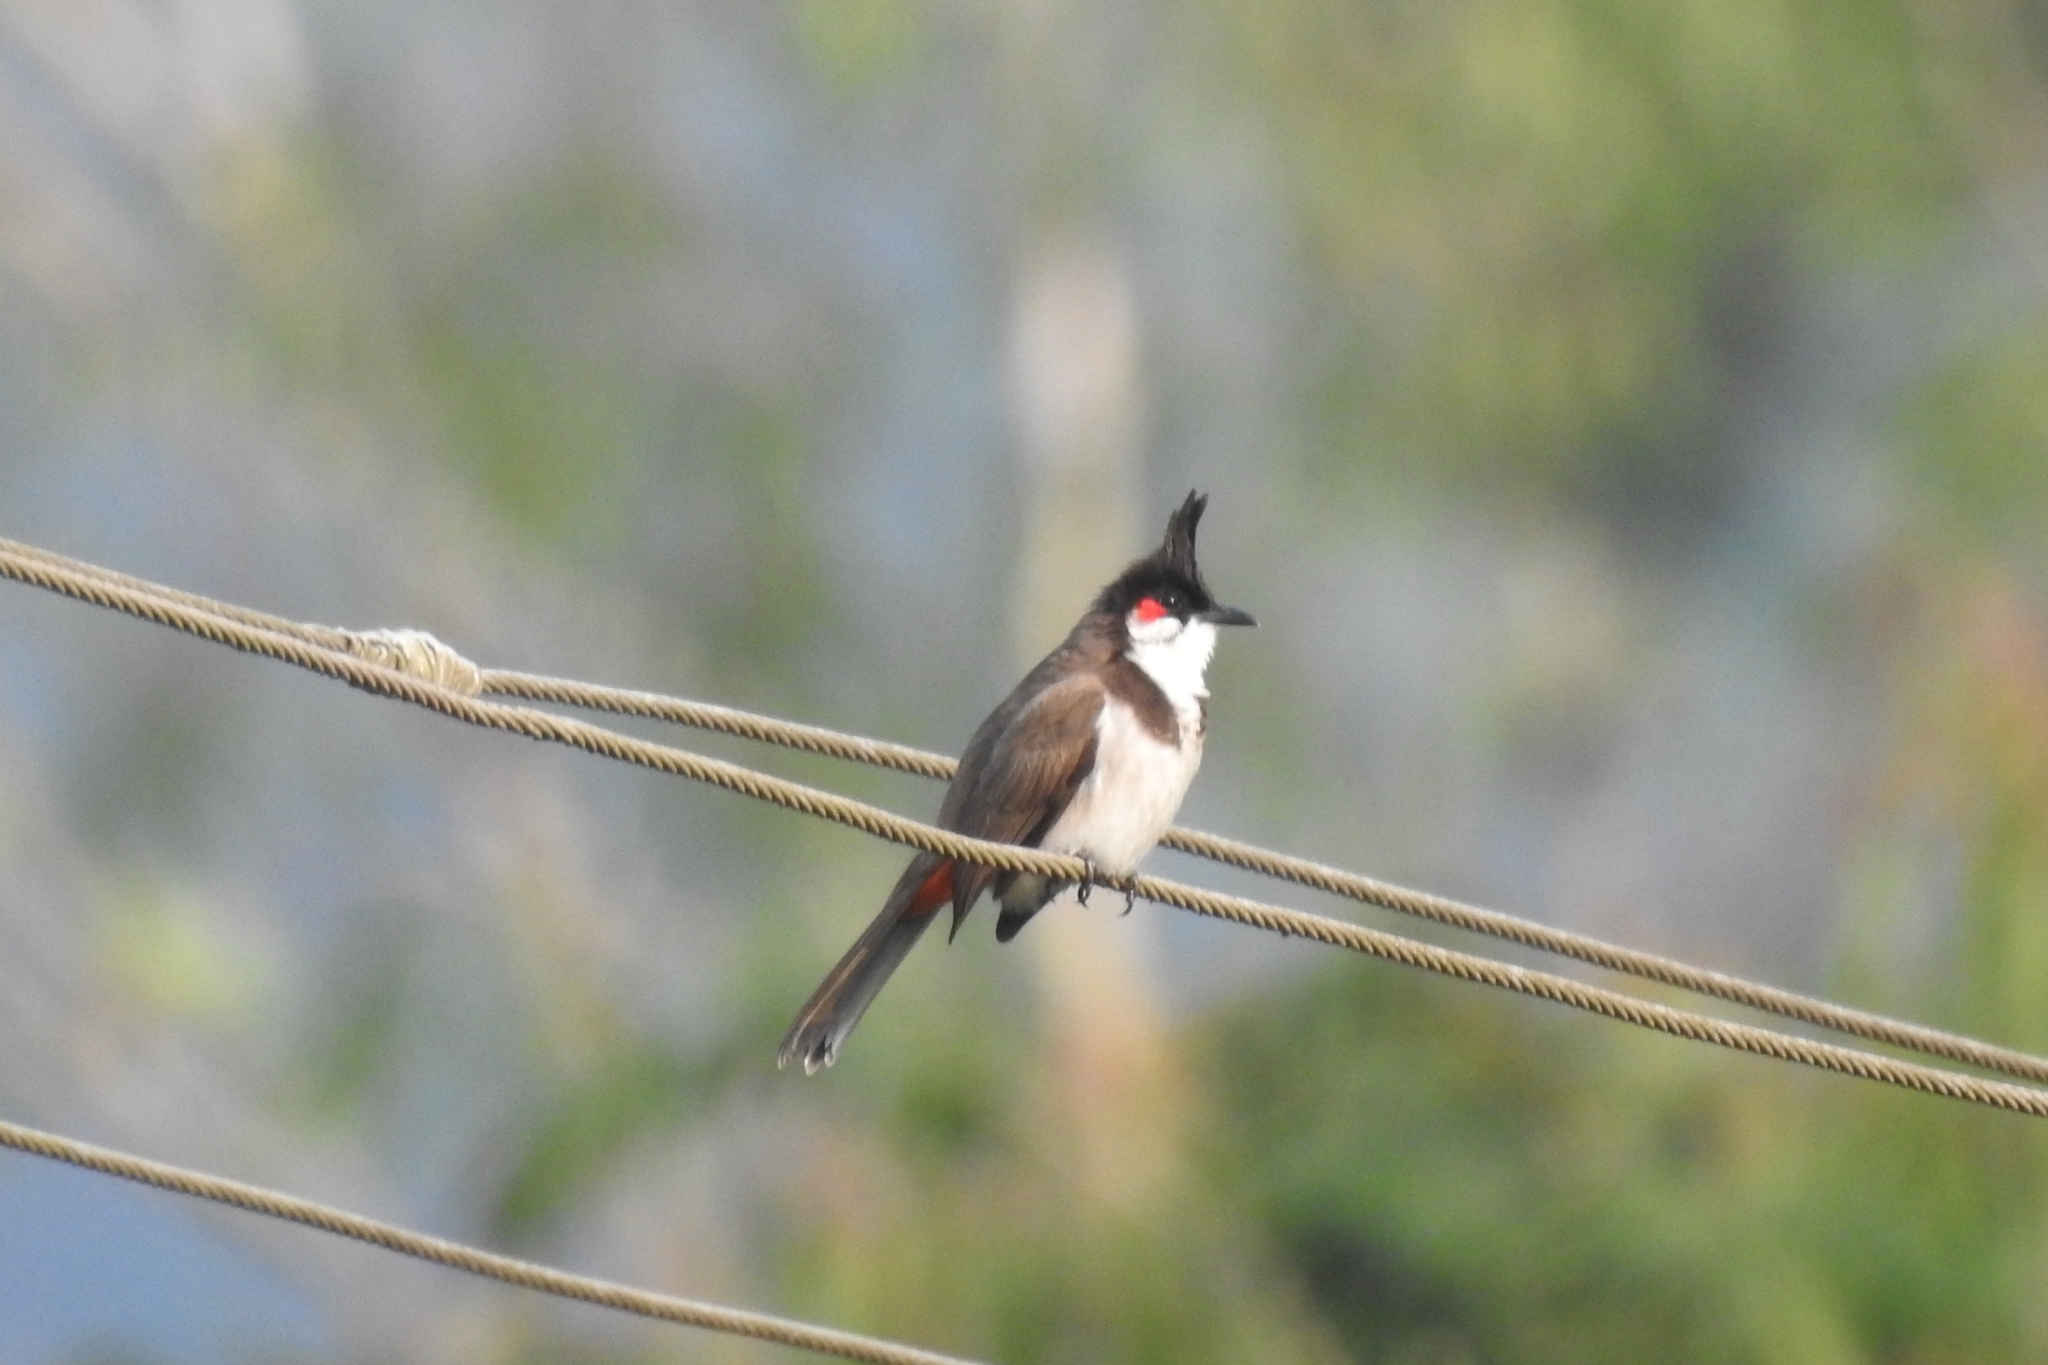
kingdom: Animalia
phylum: Chordata
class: Aves
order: Passeriformes
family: Pycnonotidae
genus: Pycnonotus
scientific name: Pycnonotus jocosus
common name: Red-whiskered bulbul
